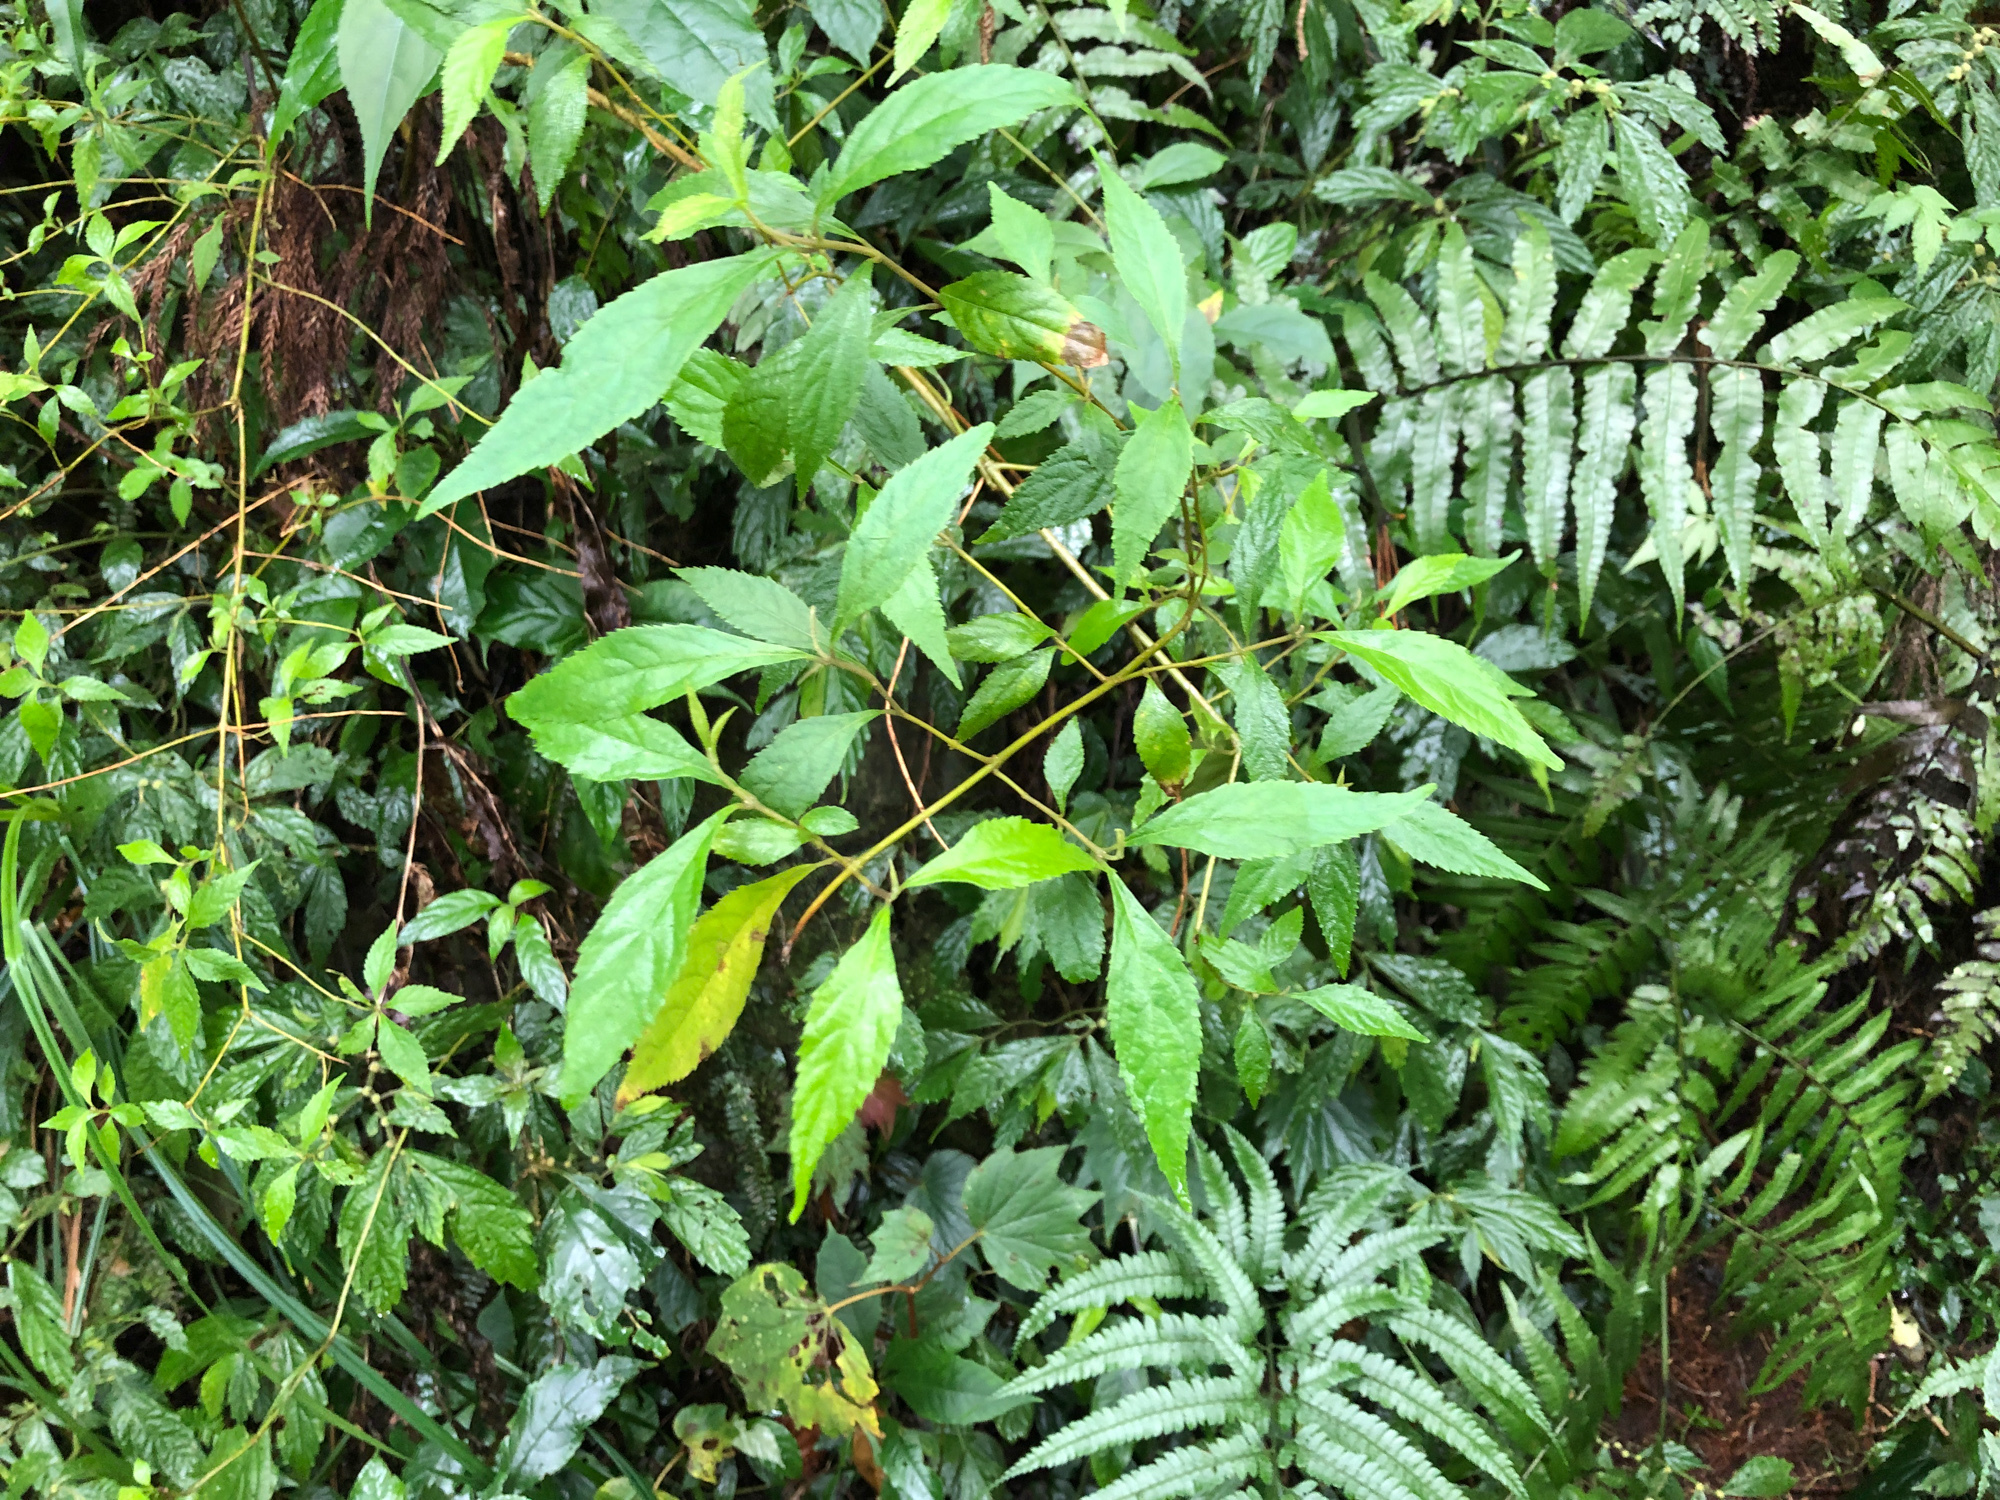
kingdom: Plantae
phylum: Tracheophyta
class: Magnoliopsida
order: Lamiales
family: Lamiaceae
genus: Callicarpa
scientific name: Callicarpa randaiensis
